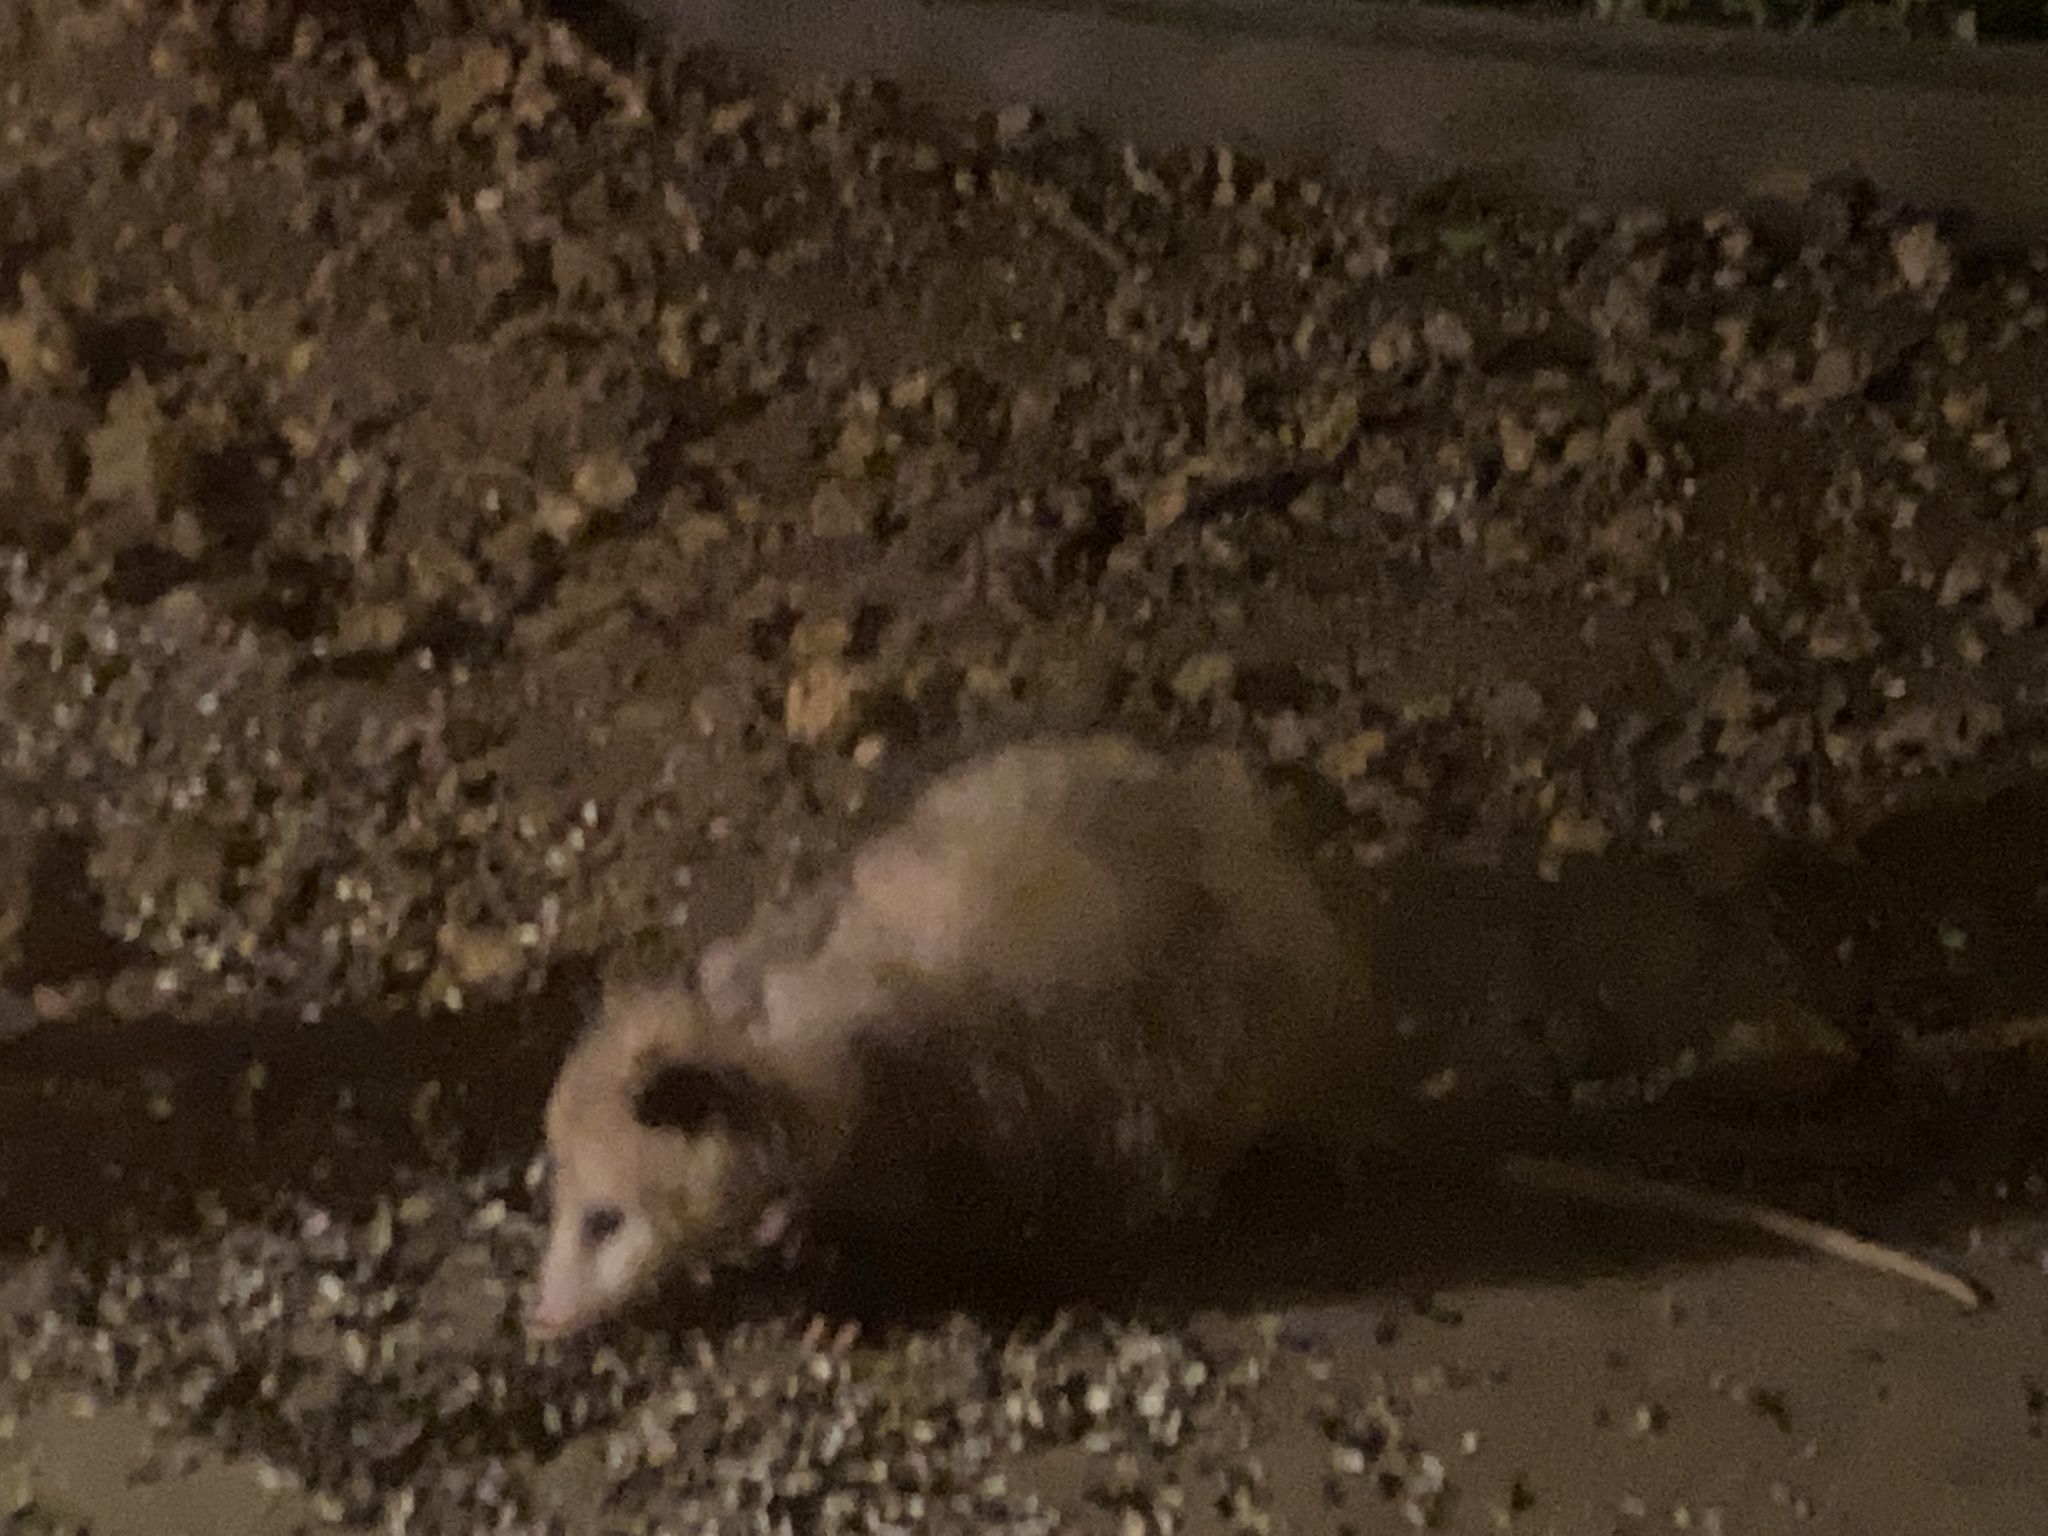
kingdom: Animalia
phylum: Chordata
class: Mammalia
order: Didelphimorphia
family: Didelphidae
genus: Didelphis
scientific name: Didelphis virginiana
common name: Virginia opossum
